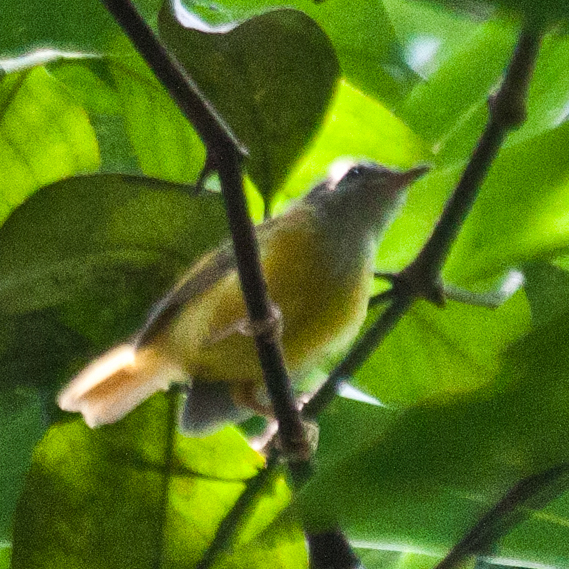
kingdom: Animalia
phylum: Chordata
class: Aves
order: Passeriformes
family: Cettiidae
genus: Abroscopus
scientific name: Abroscopus superciliaris
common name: Yellow-bellied warbler
